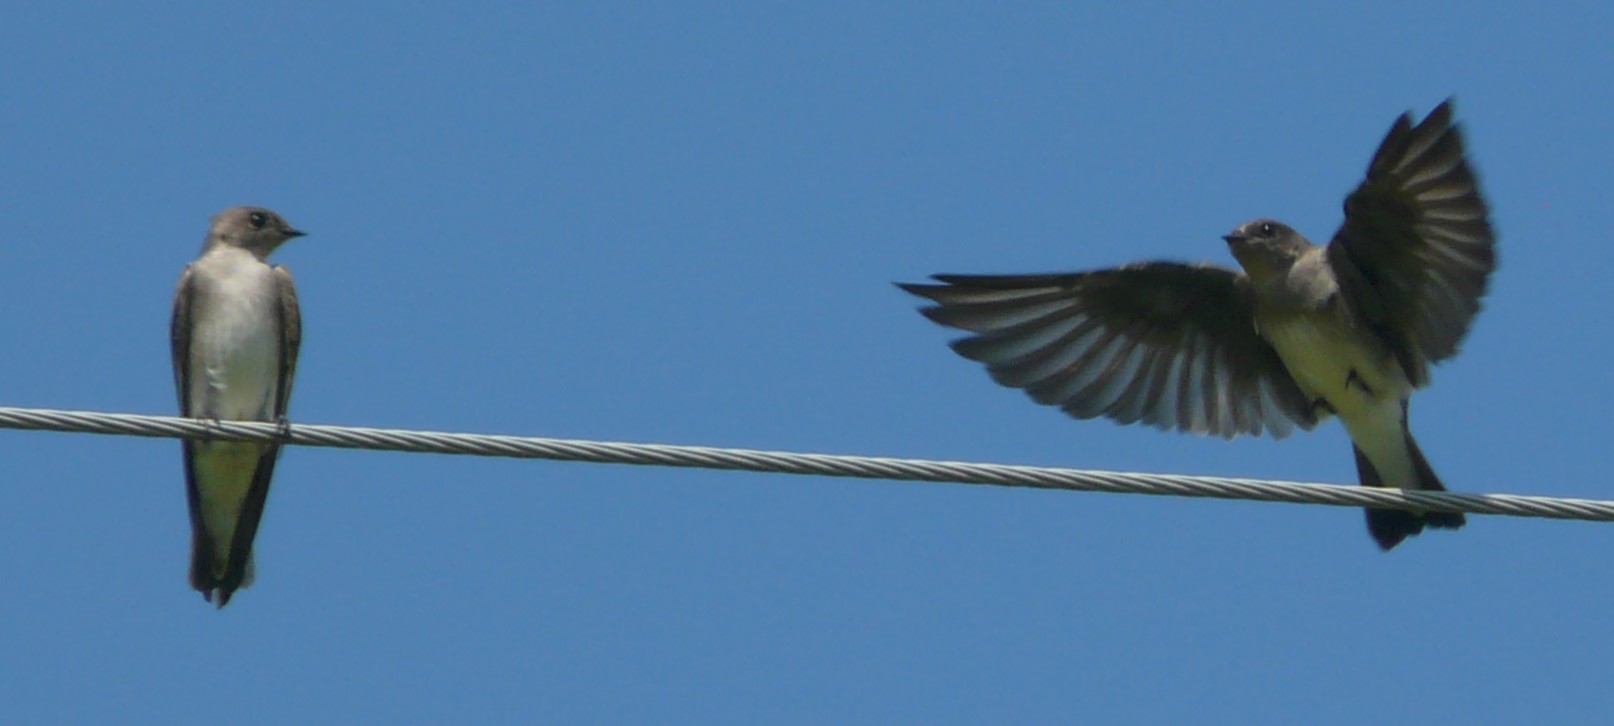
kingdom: Animalia
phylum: Chordata
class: Aves
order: Passeriformes
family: Hirundinidae
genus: Stelgidopteryx
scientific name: Stelgidopteryx serripennis
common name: Northern rough-winged swallow
